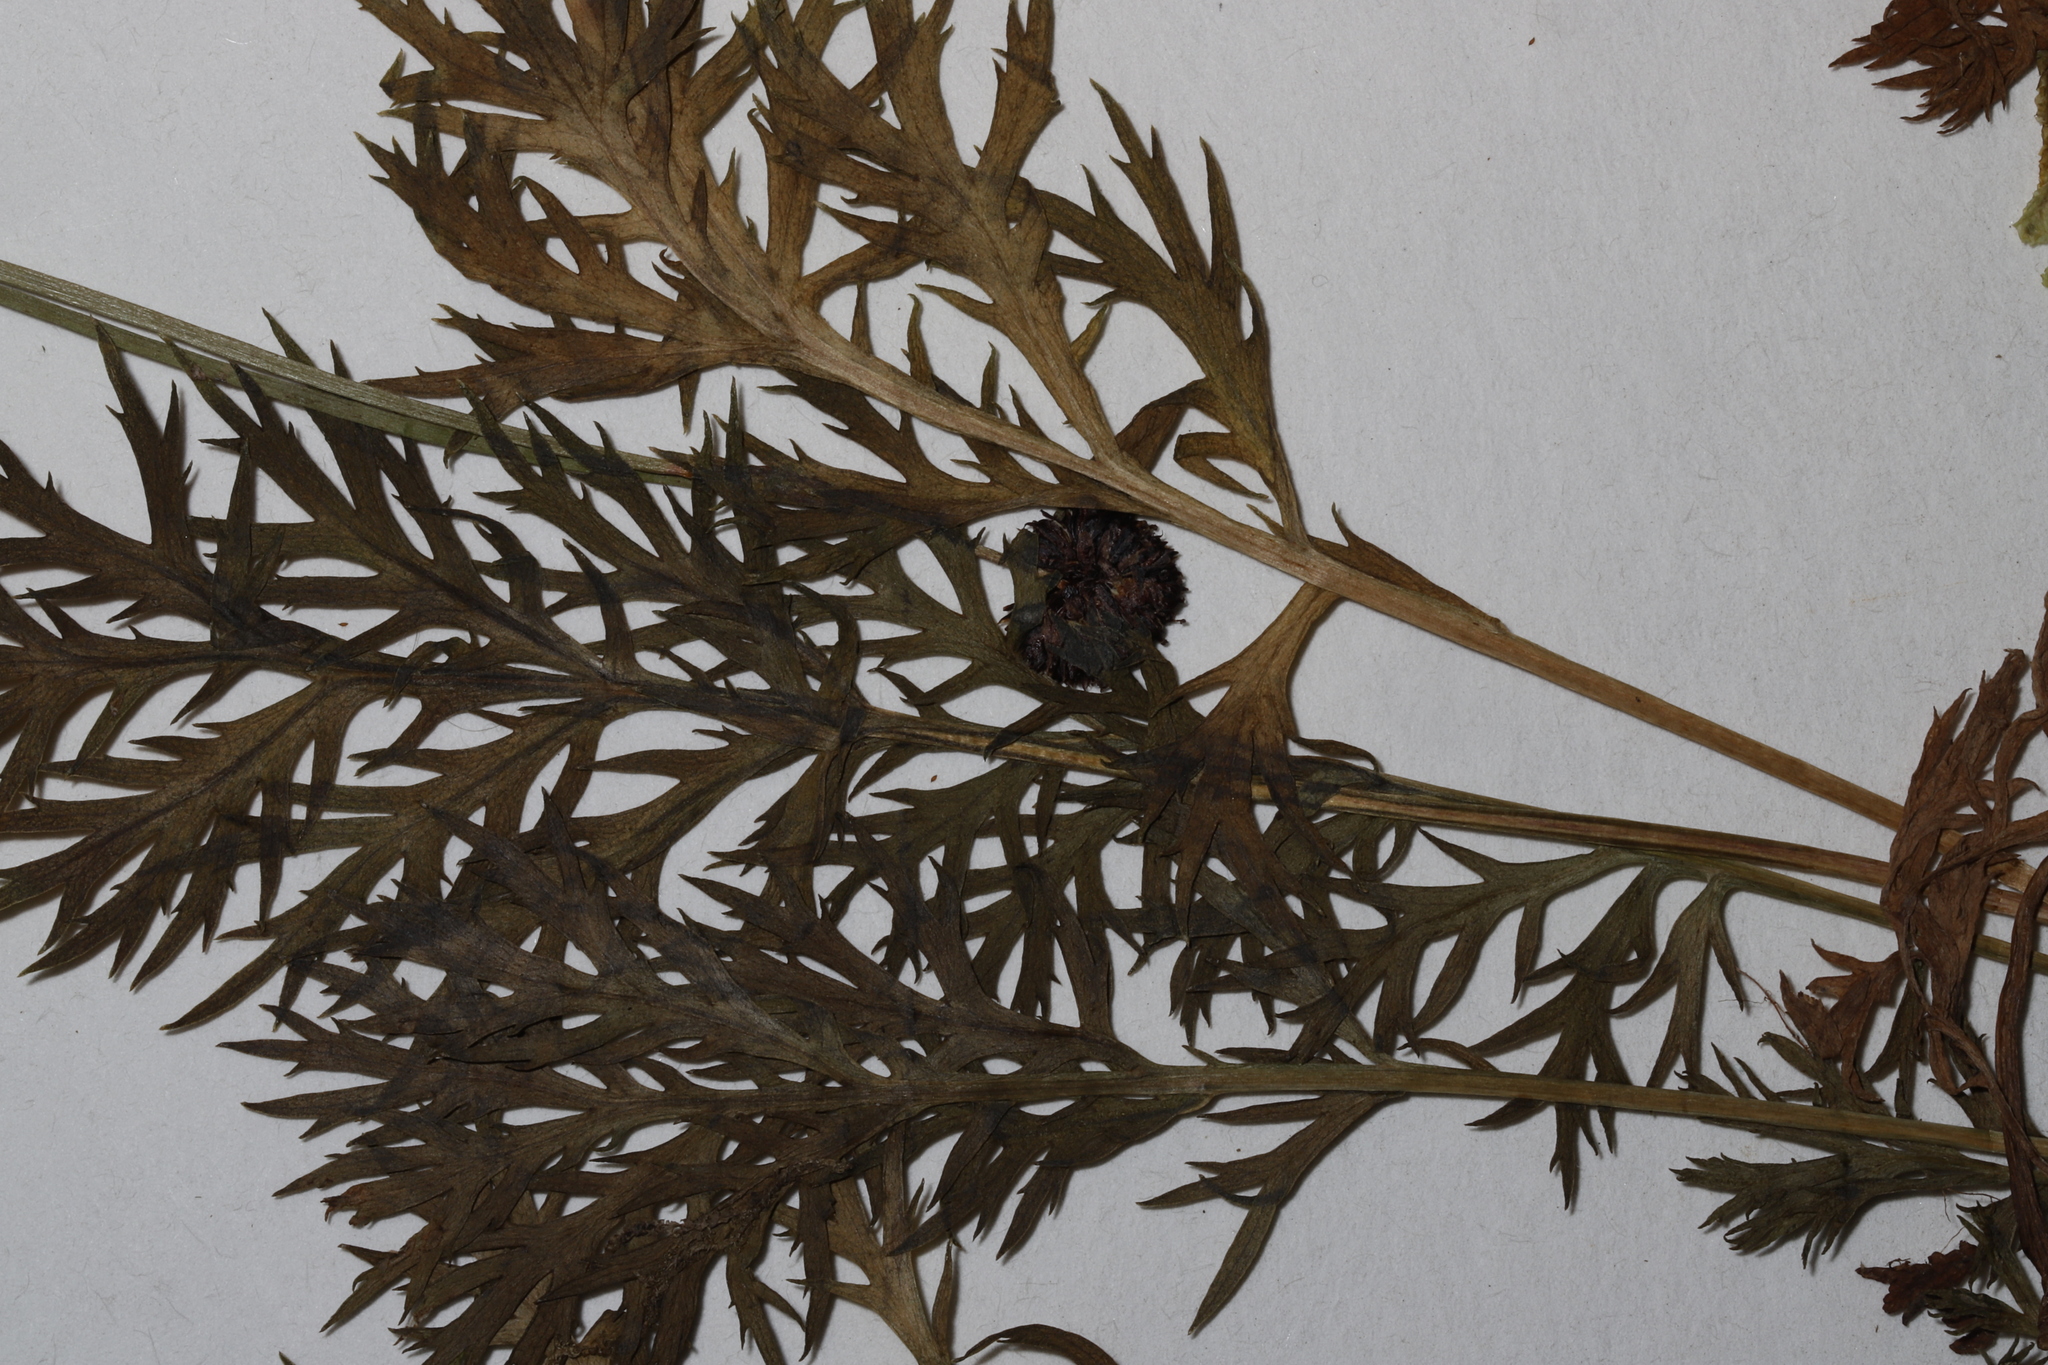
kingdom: Plantae
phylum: Tracheophyta
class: Magnoliopsida
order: Asterales
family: Asteraceae
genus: Artemisia
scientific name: Artemisia norvegica
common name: Norwegian mugwort
